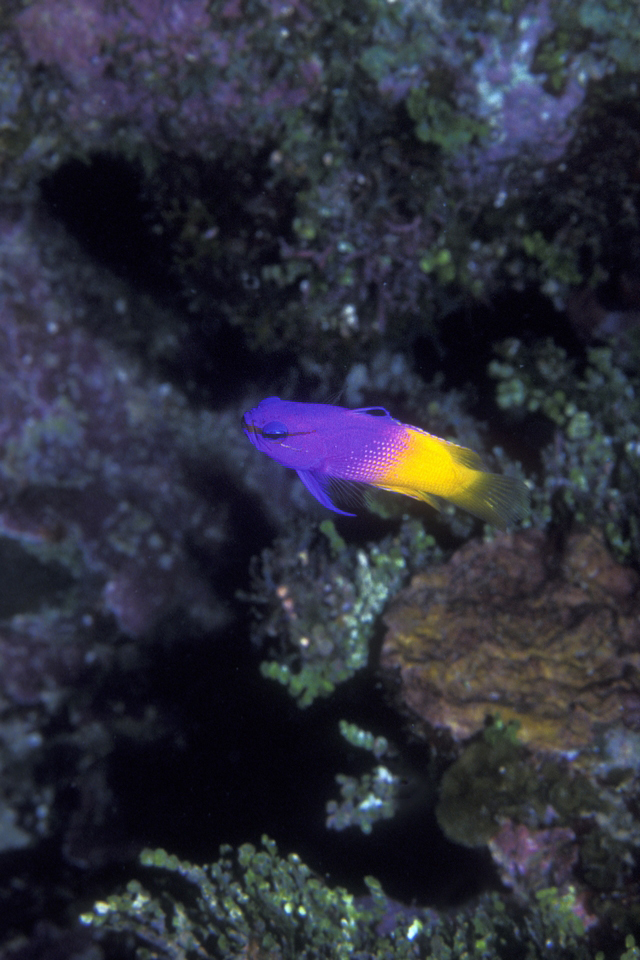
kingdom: Animalia
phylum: Chordata
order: Perciformes
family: Grammatidae
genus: Gramma
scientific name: Gramma loreto
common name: Fairy basslet
